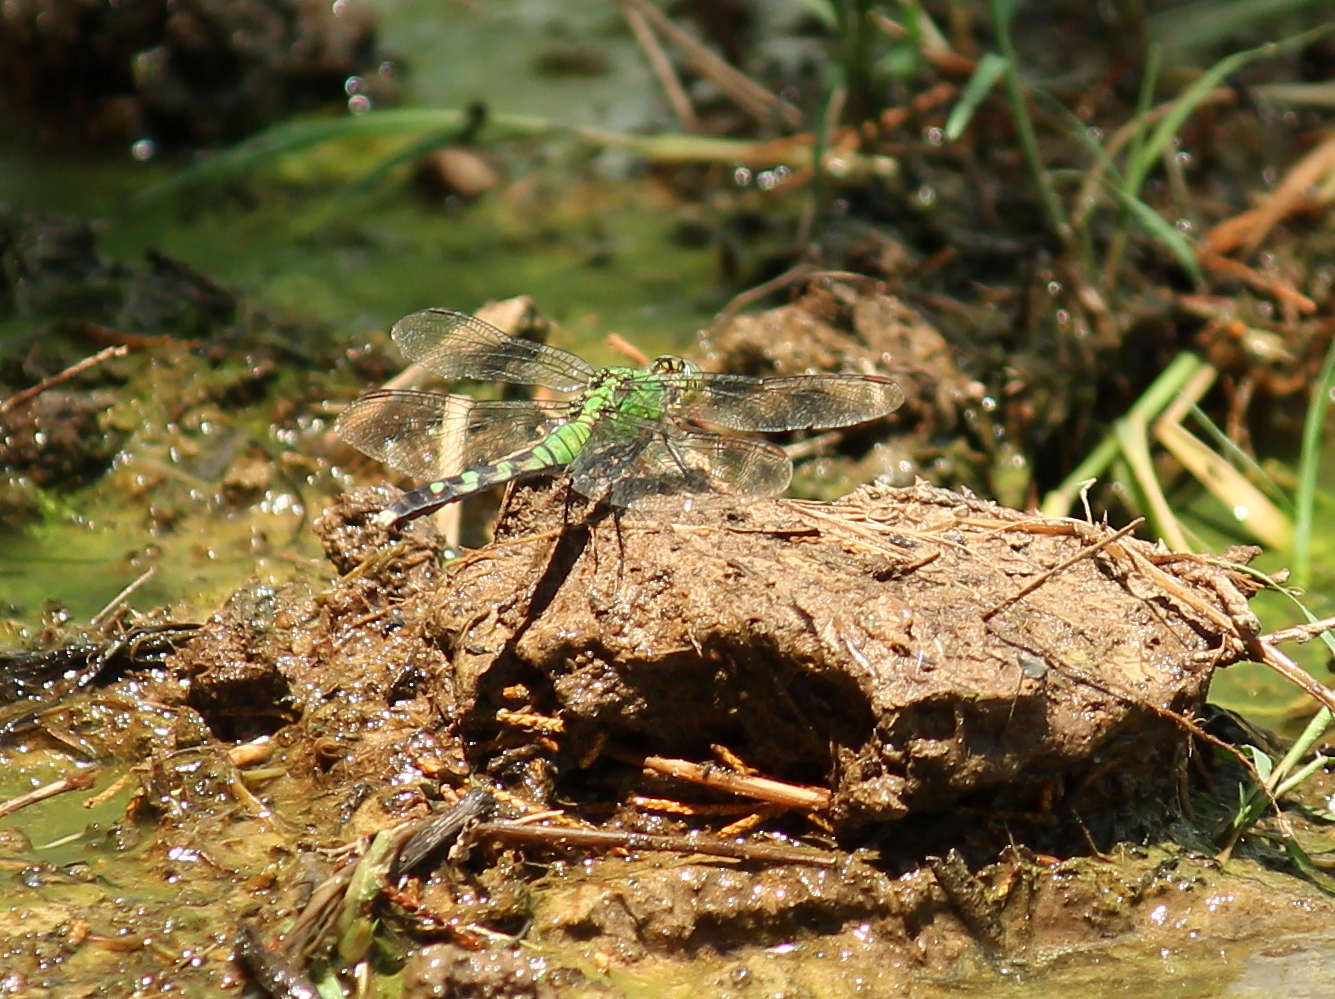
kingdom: Animalia
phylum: Arthropoda
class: Insecta
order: Odonata
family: Libellulidae
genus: Erythemis
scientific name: Erythemis simplicicollis
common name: Eastern pondhawk
